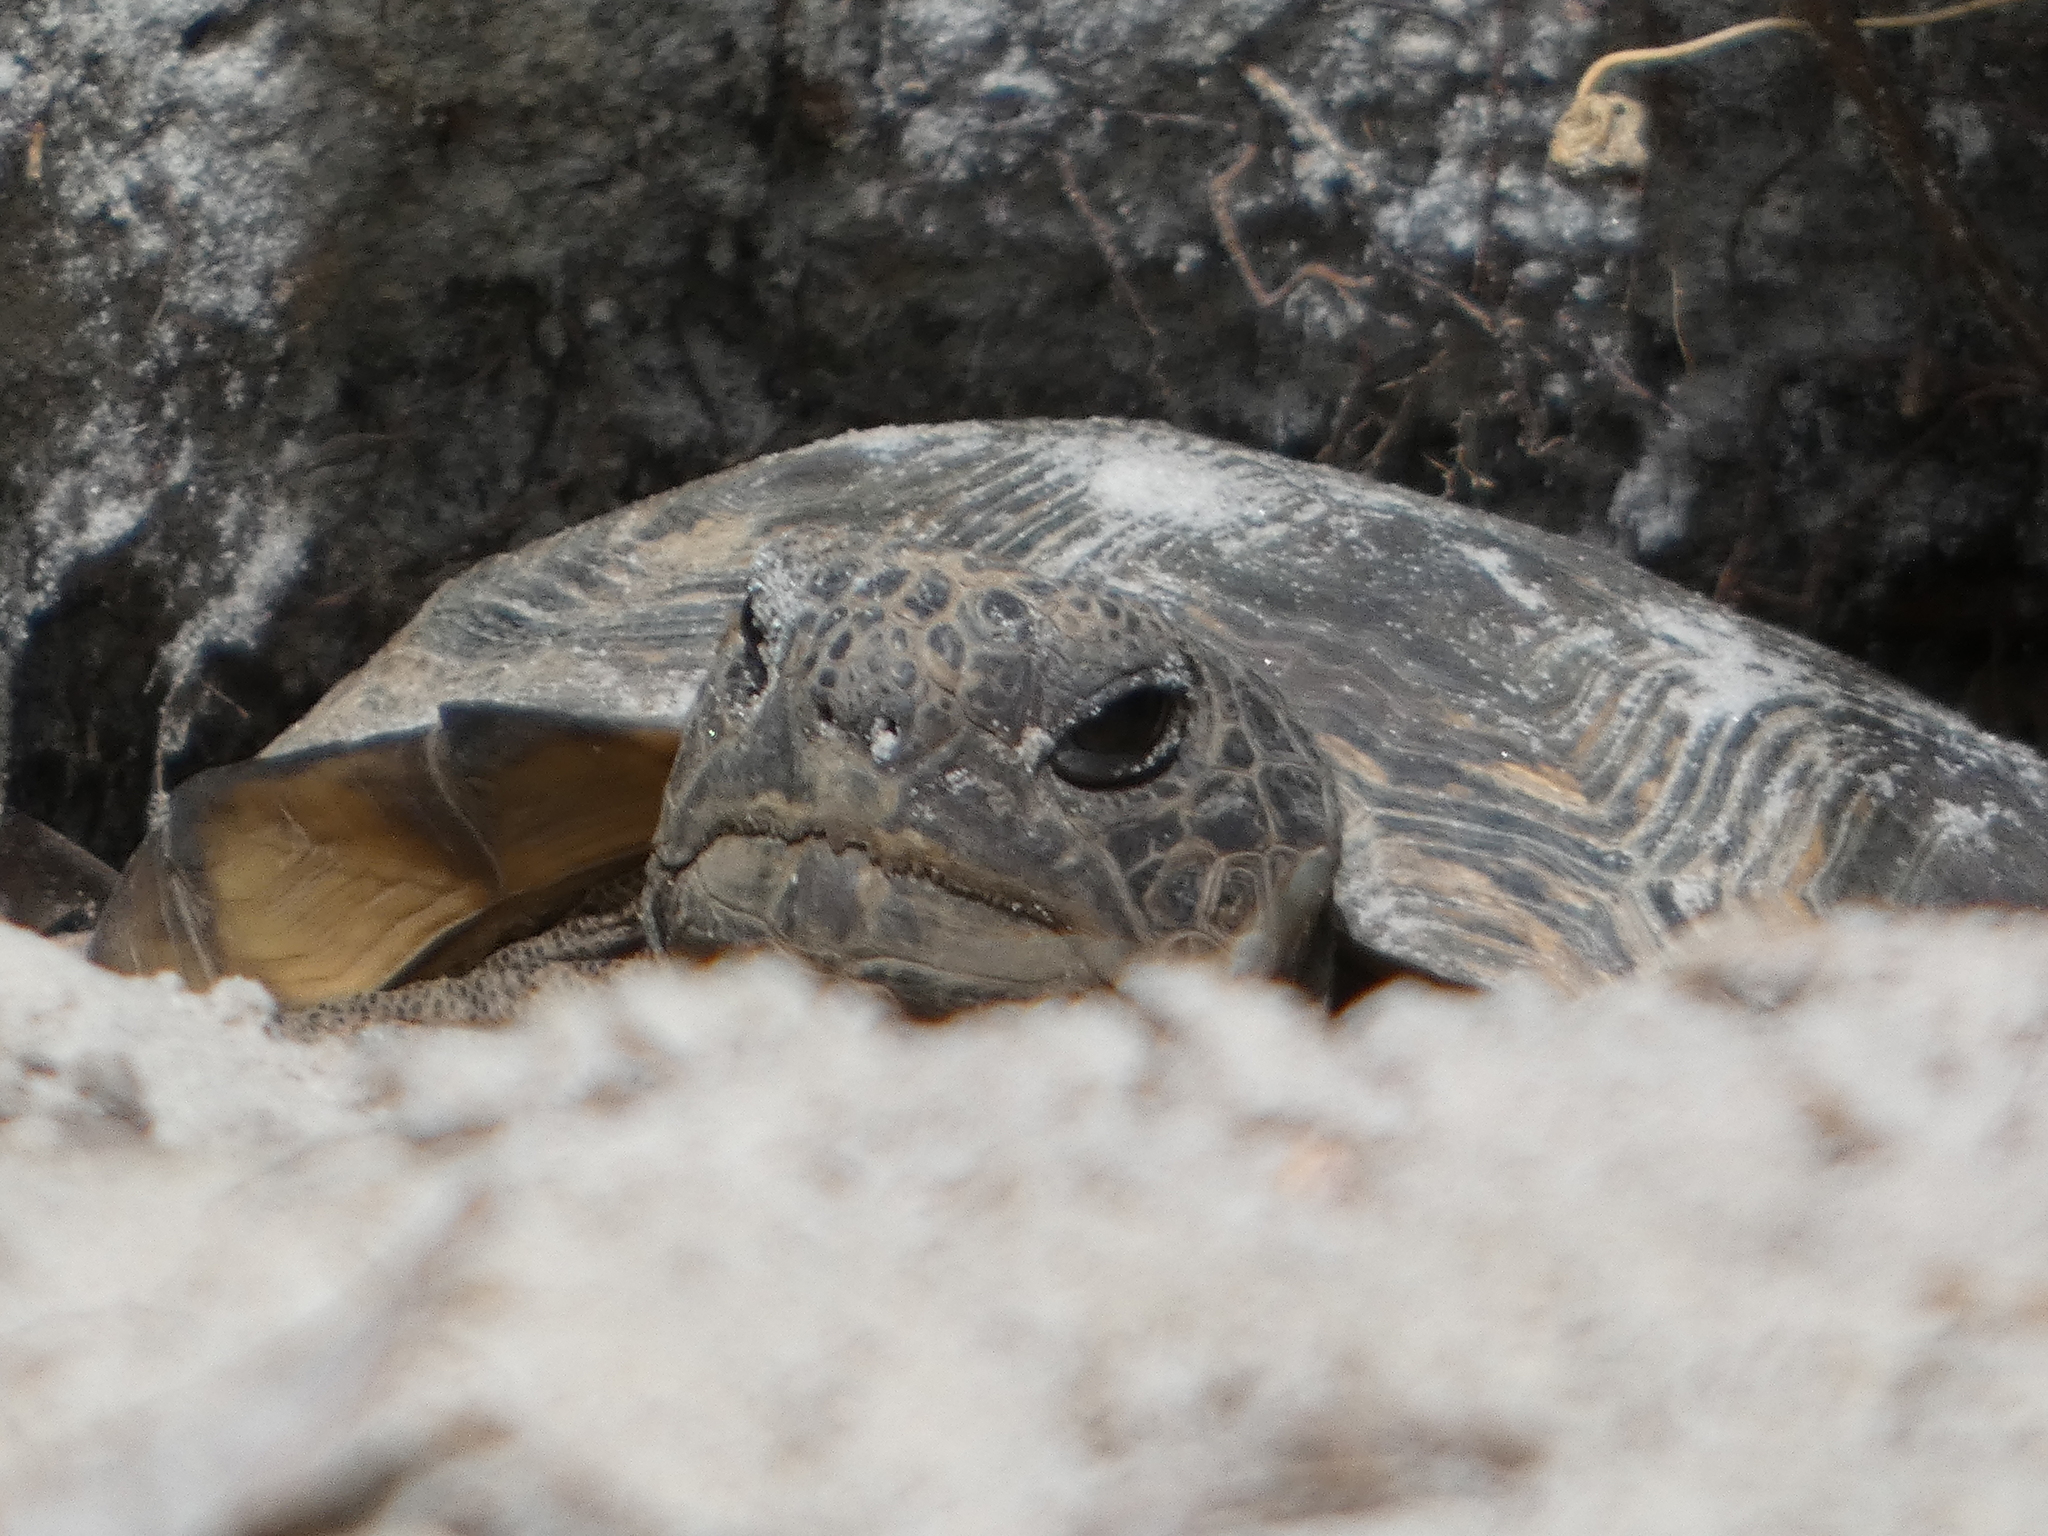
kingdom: Animalia
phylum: Chordata
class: Testudines
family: Testudinidae
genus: Gopherus
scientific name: Gopherus polyphemus
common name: Florida gopher tortoise
